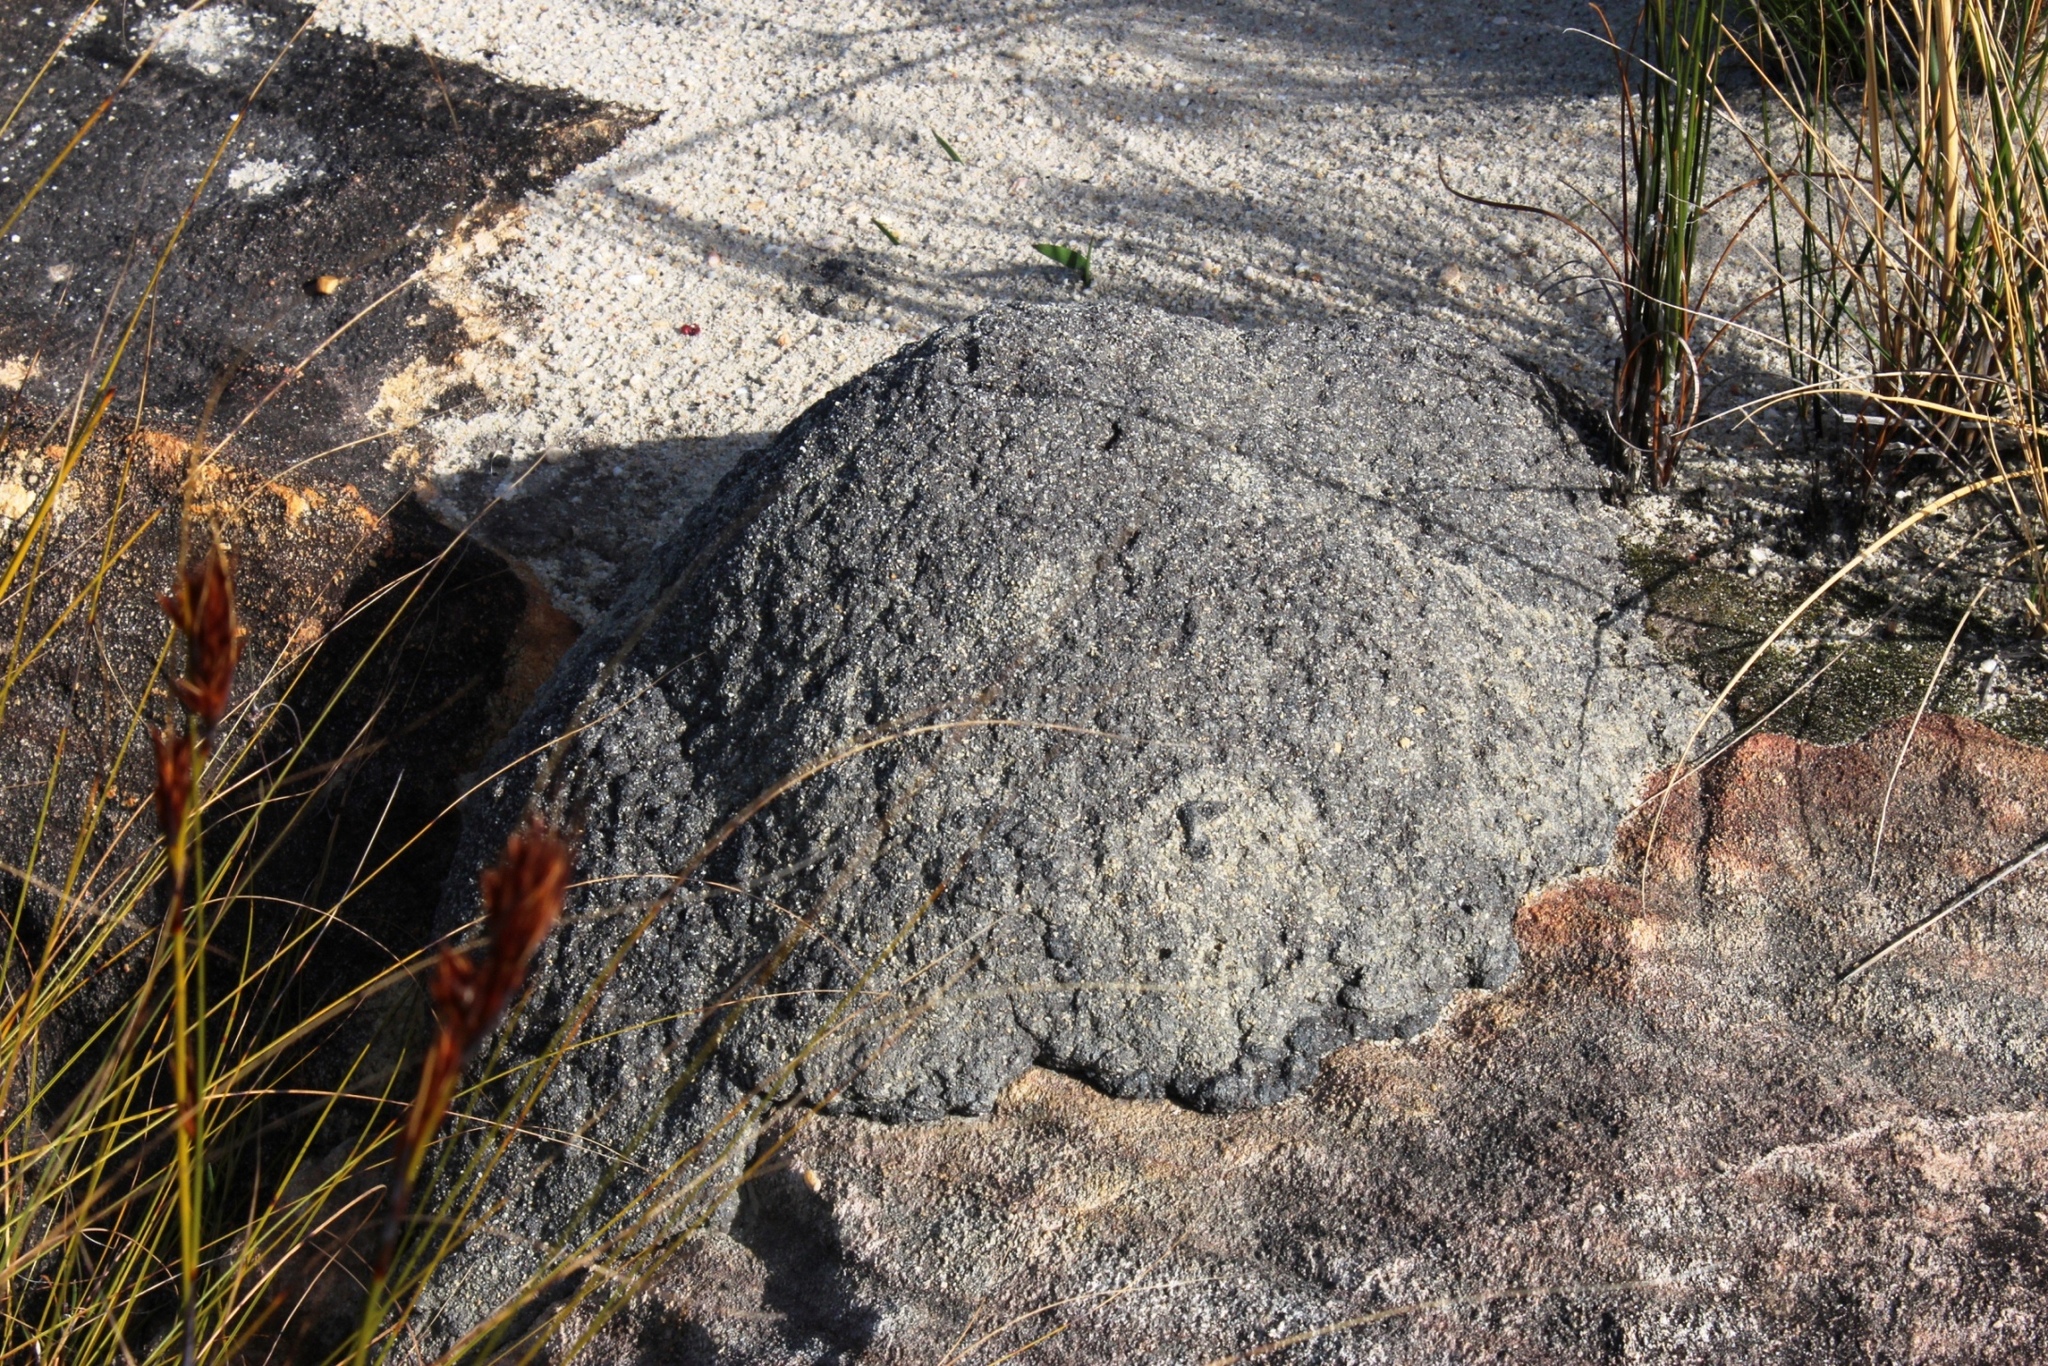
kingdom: Animalia
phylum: Arthropoda
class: Insecta
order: Blattodea
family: Termitidae
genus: Amitermes
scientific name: Amitermes hastatus
